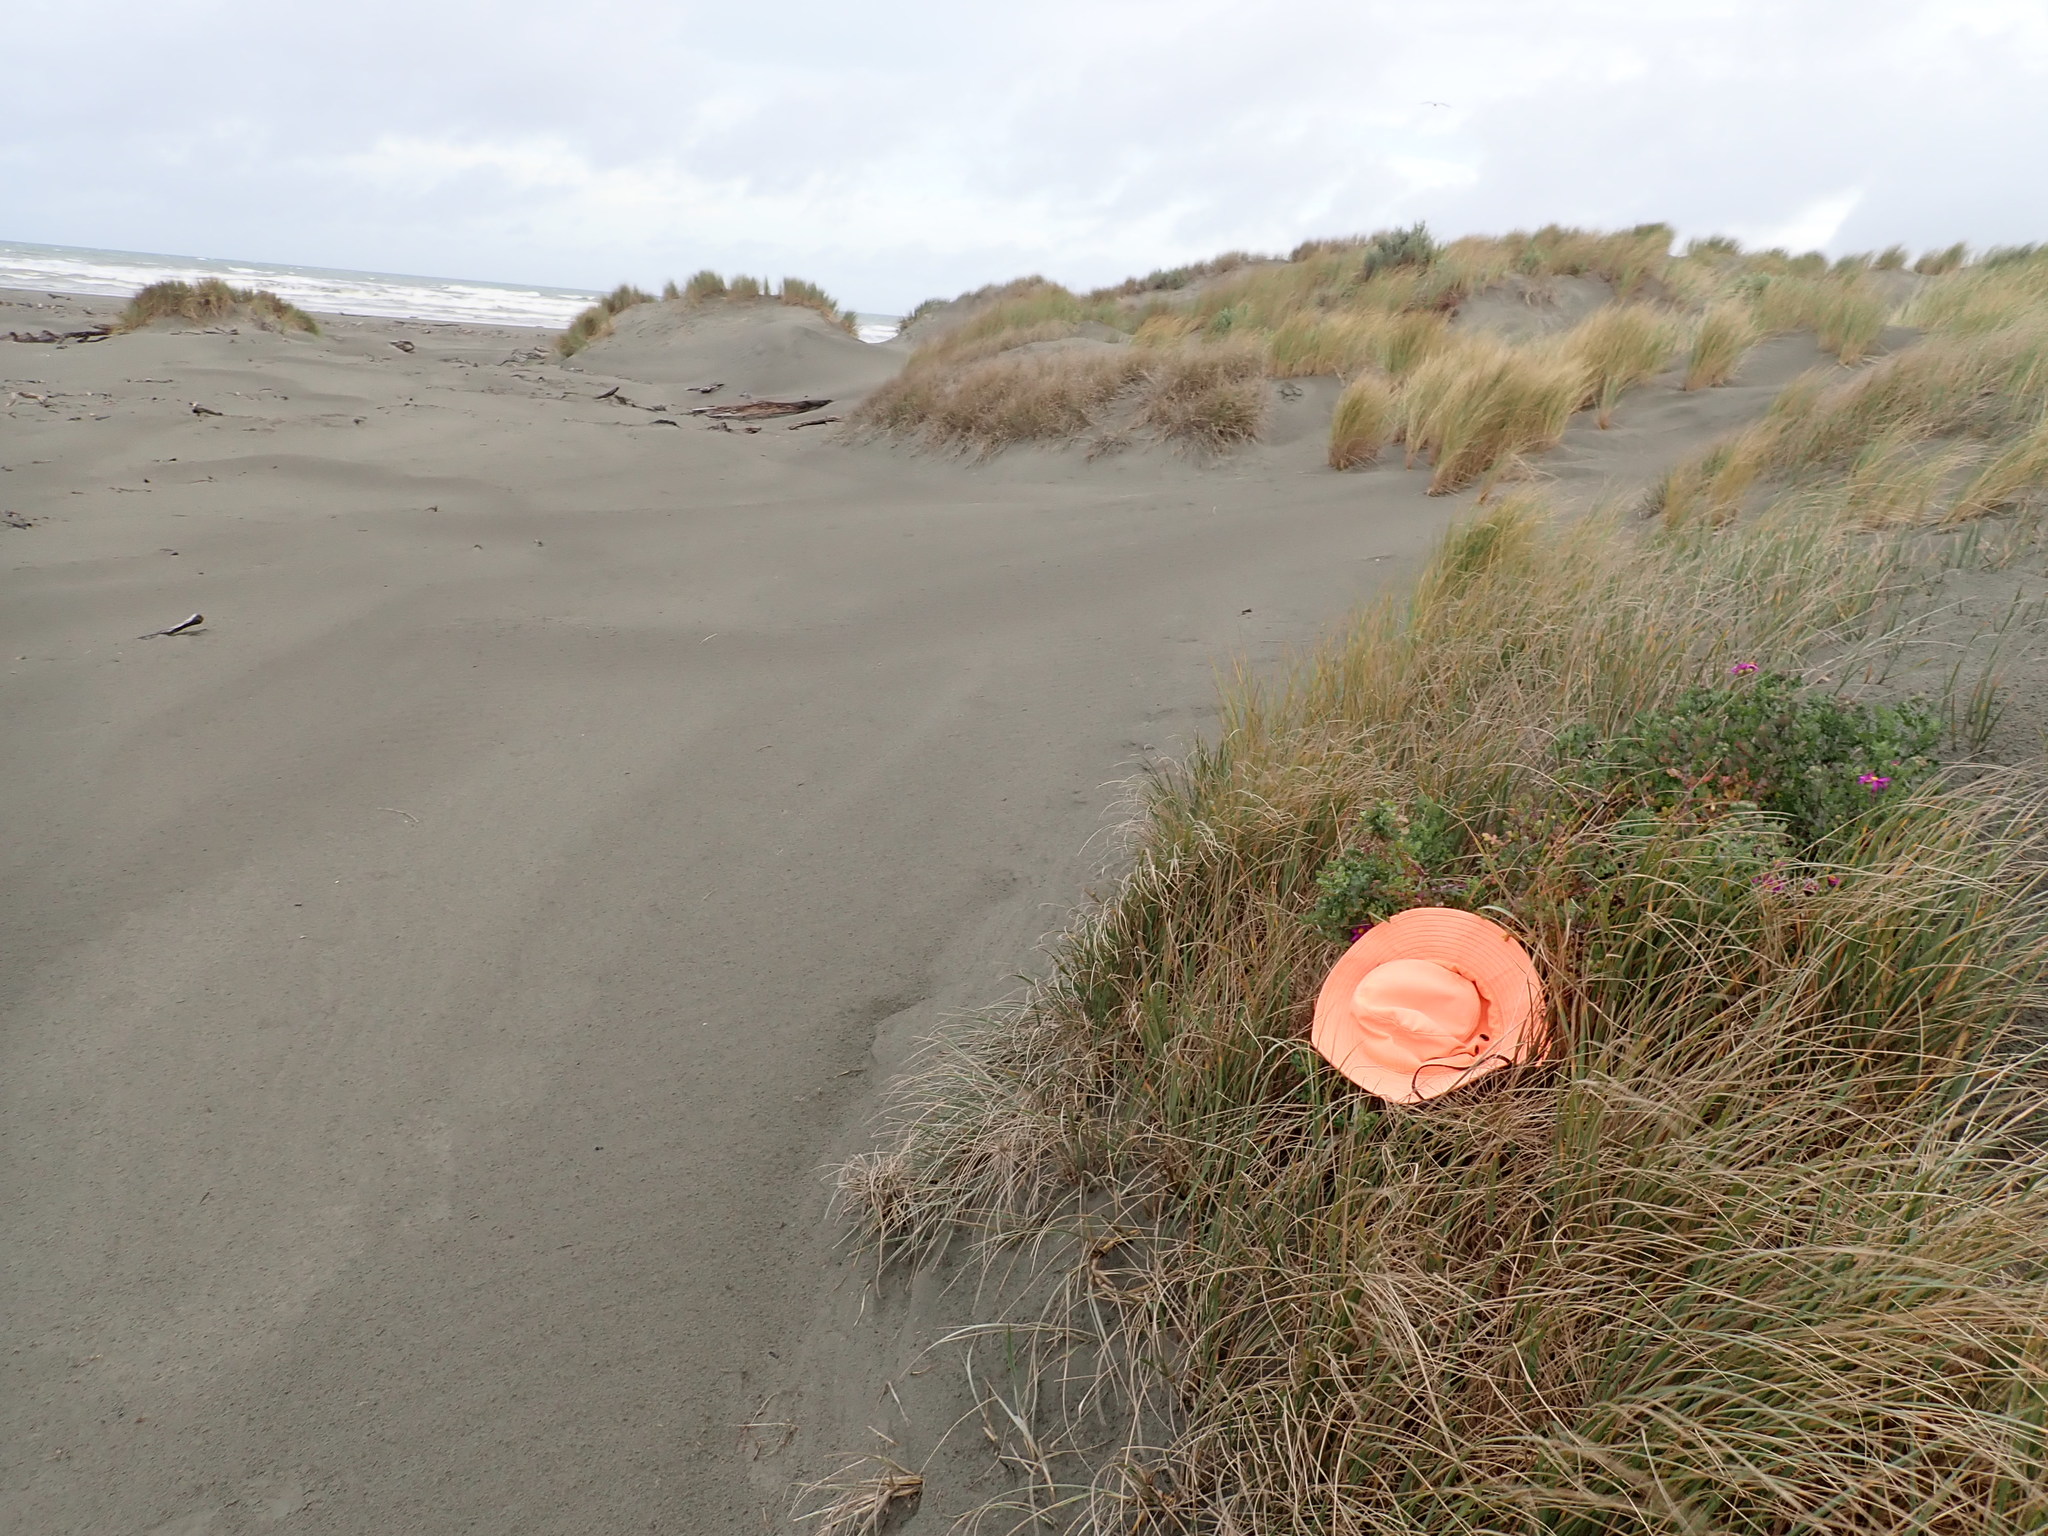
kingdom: Plantae
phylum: Tracheophyta
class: Magnoliopsida
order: Asterales
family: Asteraceae
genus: Senecio
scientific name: Senecio elegans
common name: Purple groundsel
